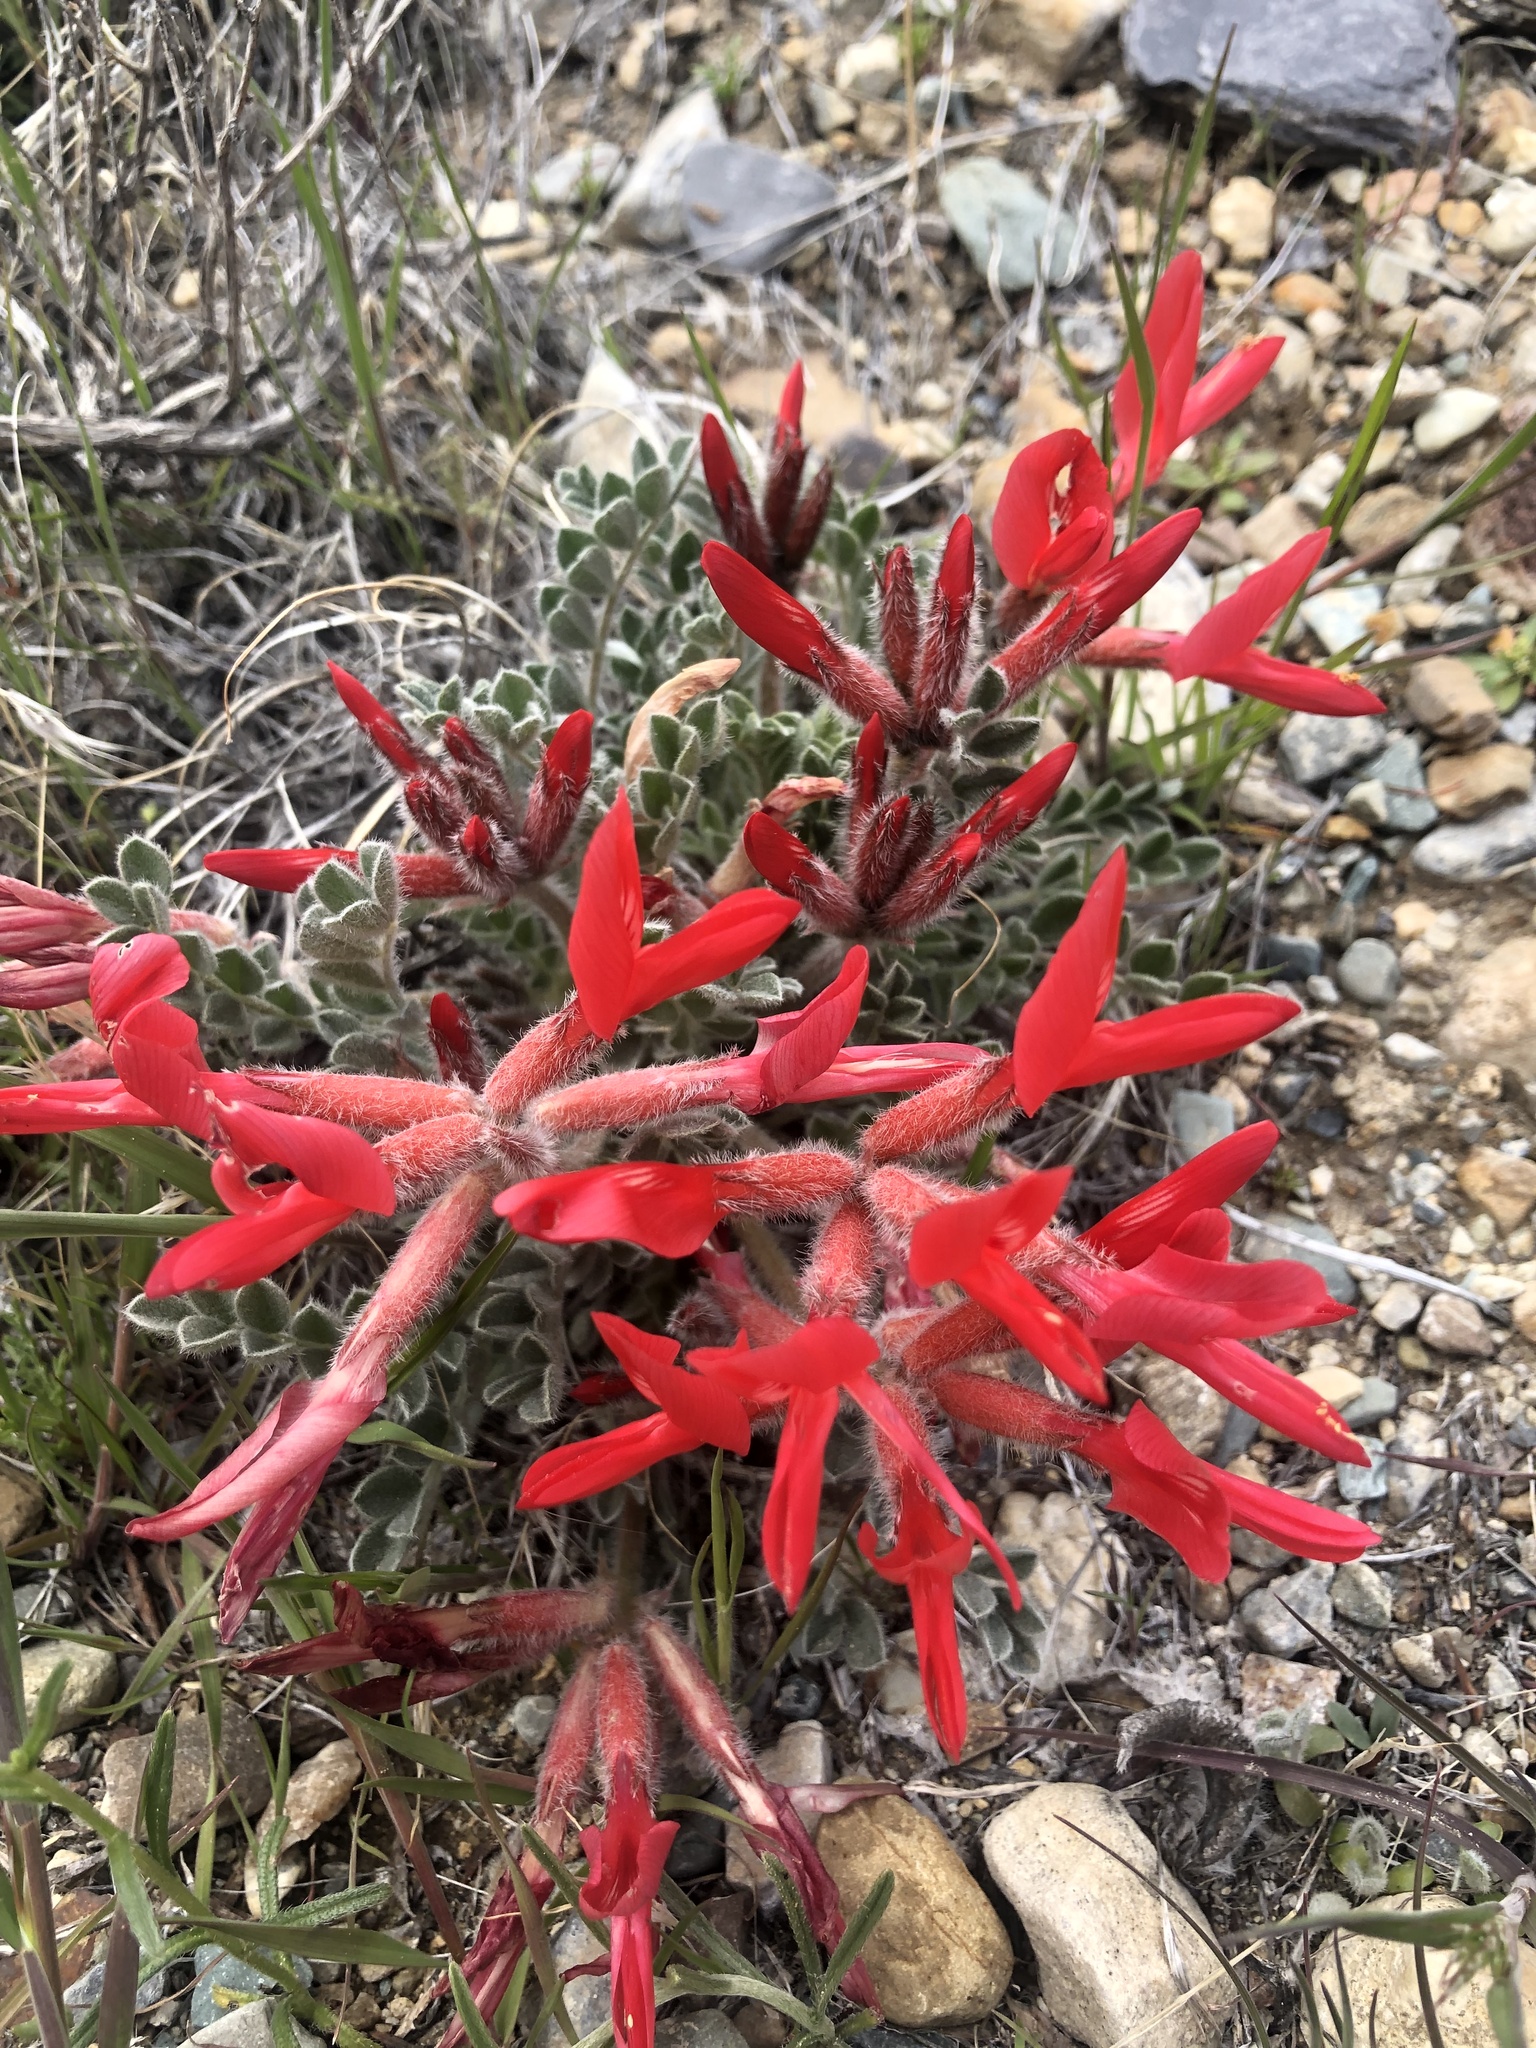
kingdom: Plantae
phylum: Tracheophyta
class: Magnoliopsida
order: Fabales
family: Fabaceae
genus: Astragalus
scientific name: Astragalus coccineus
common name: Scarlet milk-vetch
